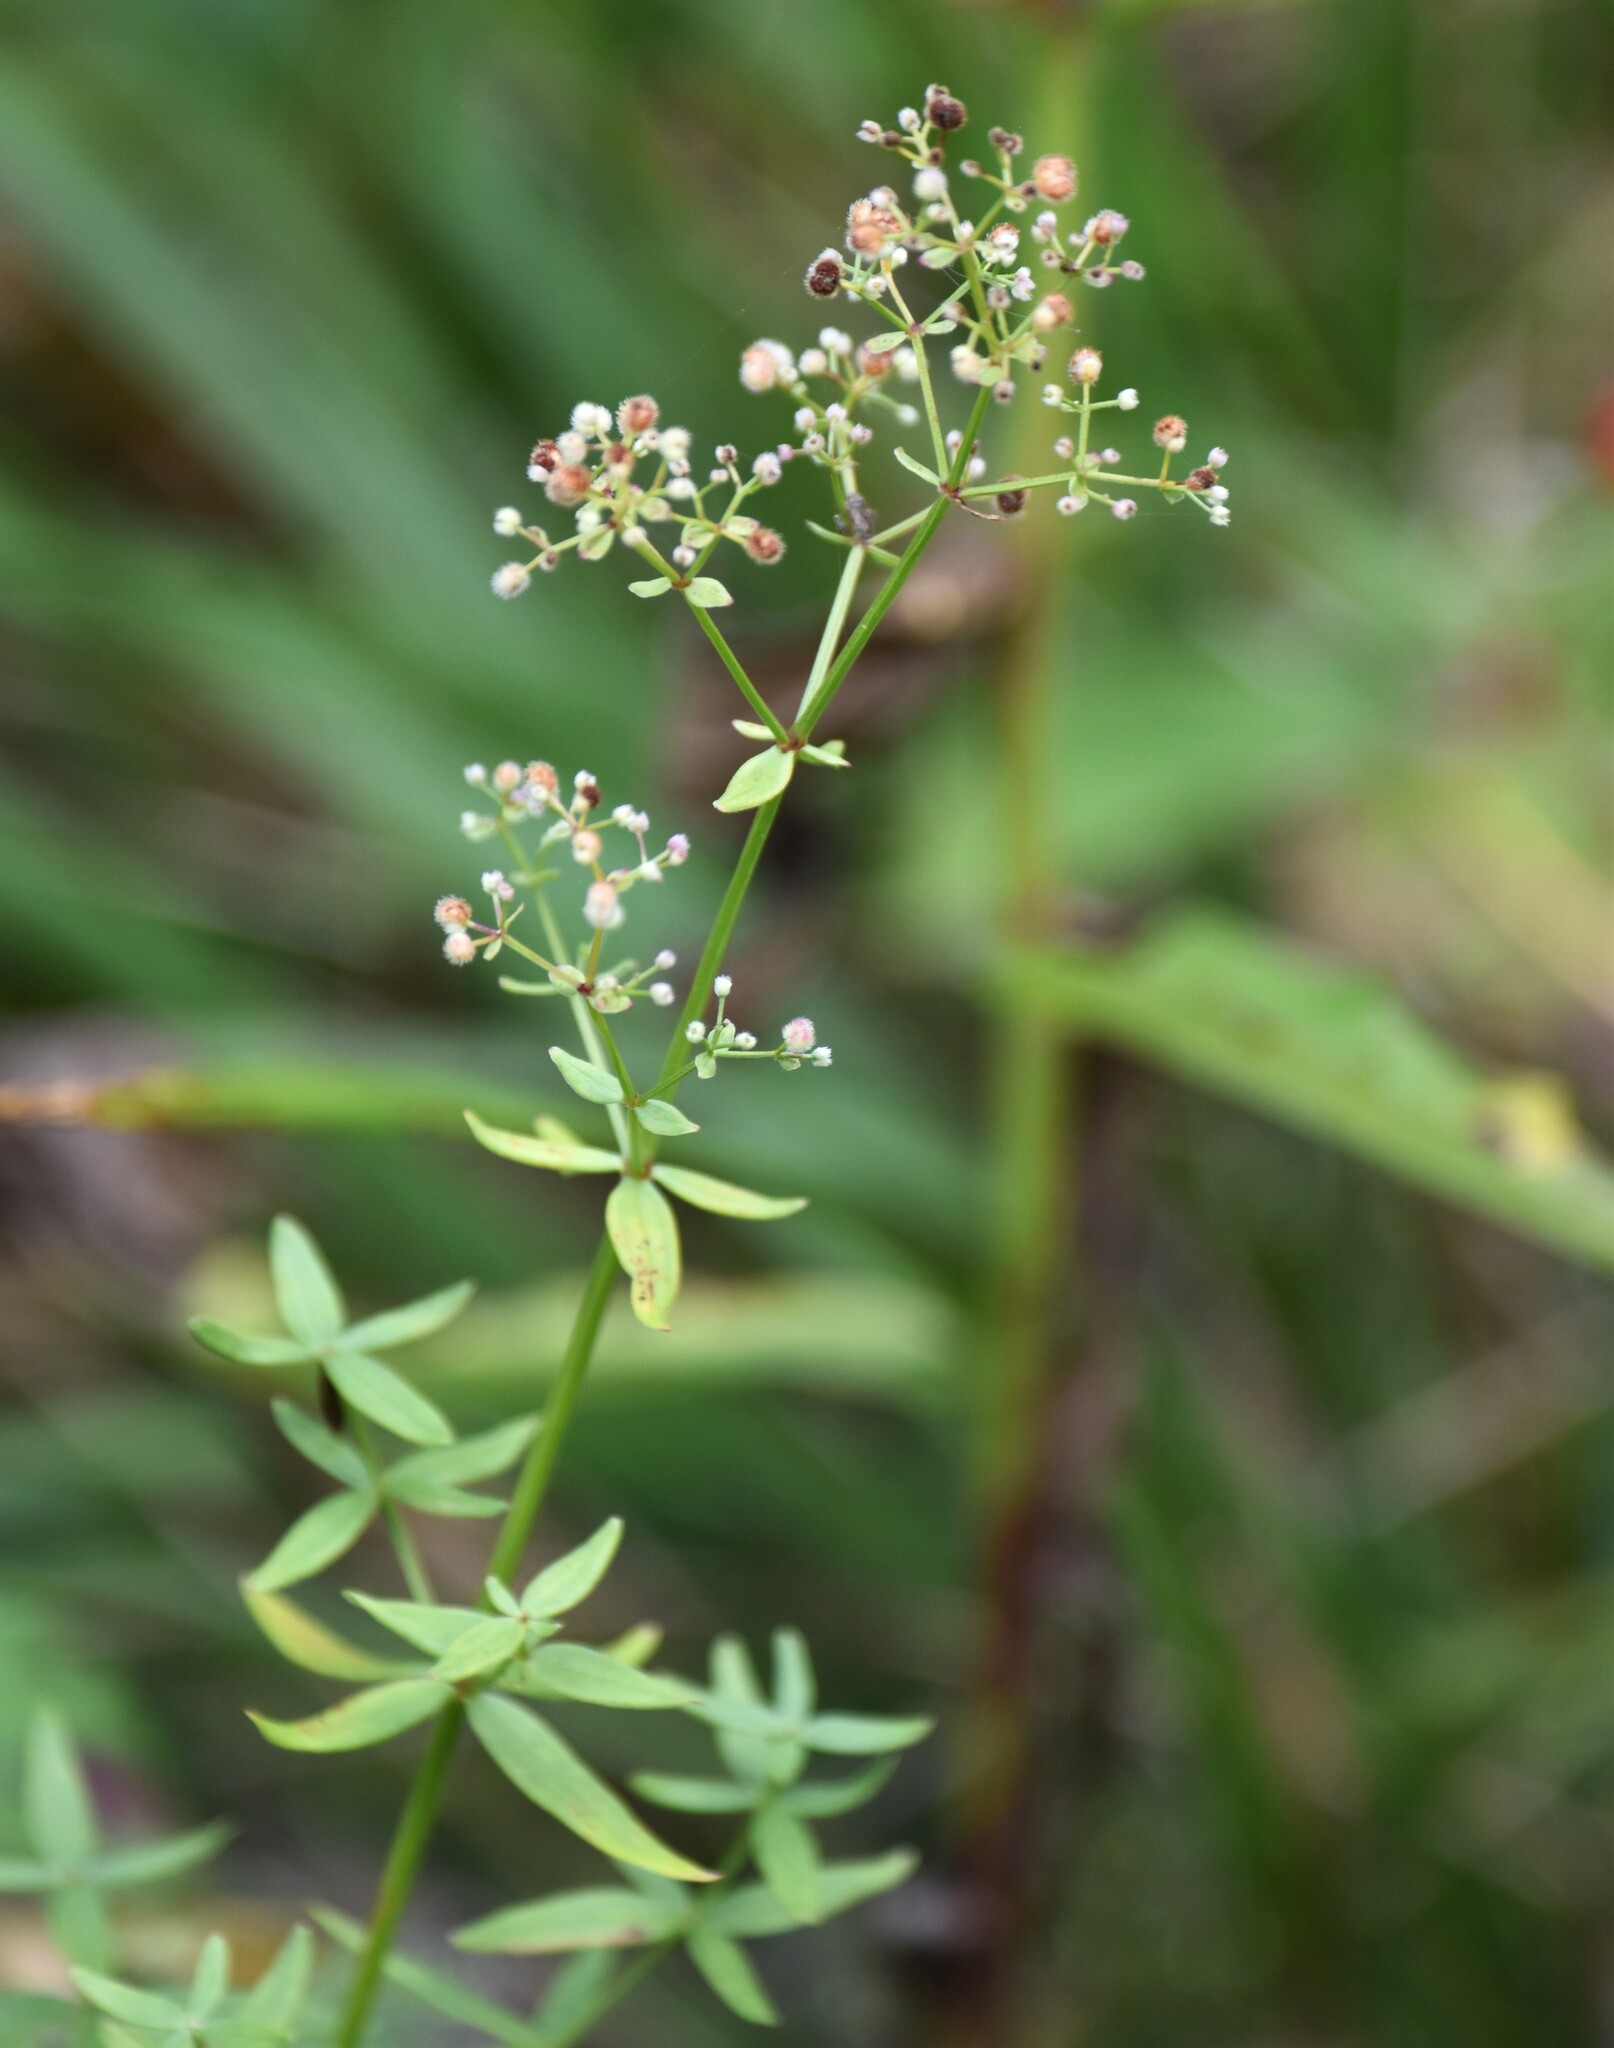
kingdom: Plantae
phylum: Tracheophyta
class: Magnoliopsida
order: Gentianales
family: Rubiaceae
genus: Galium
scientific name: Galium boreale
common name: Northern bedstraw
